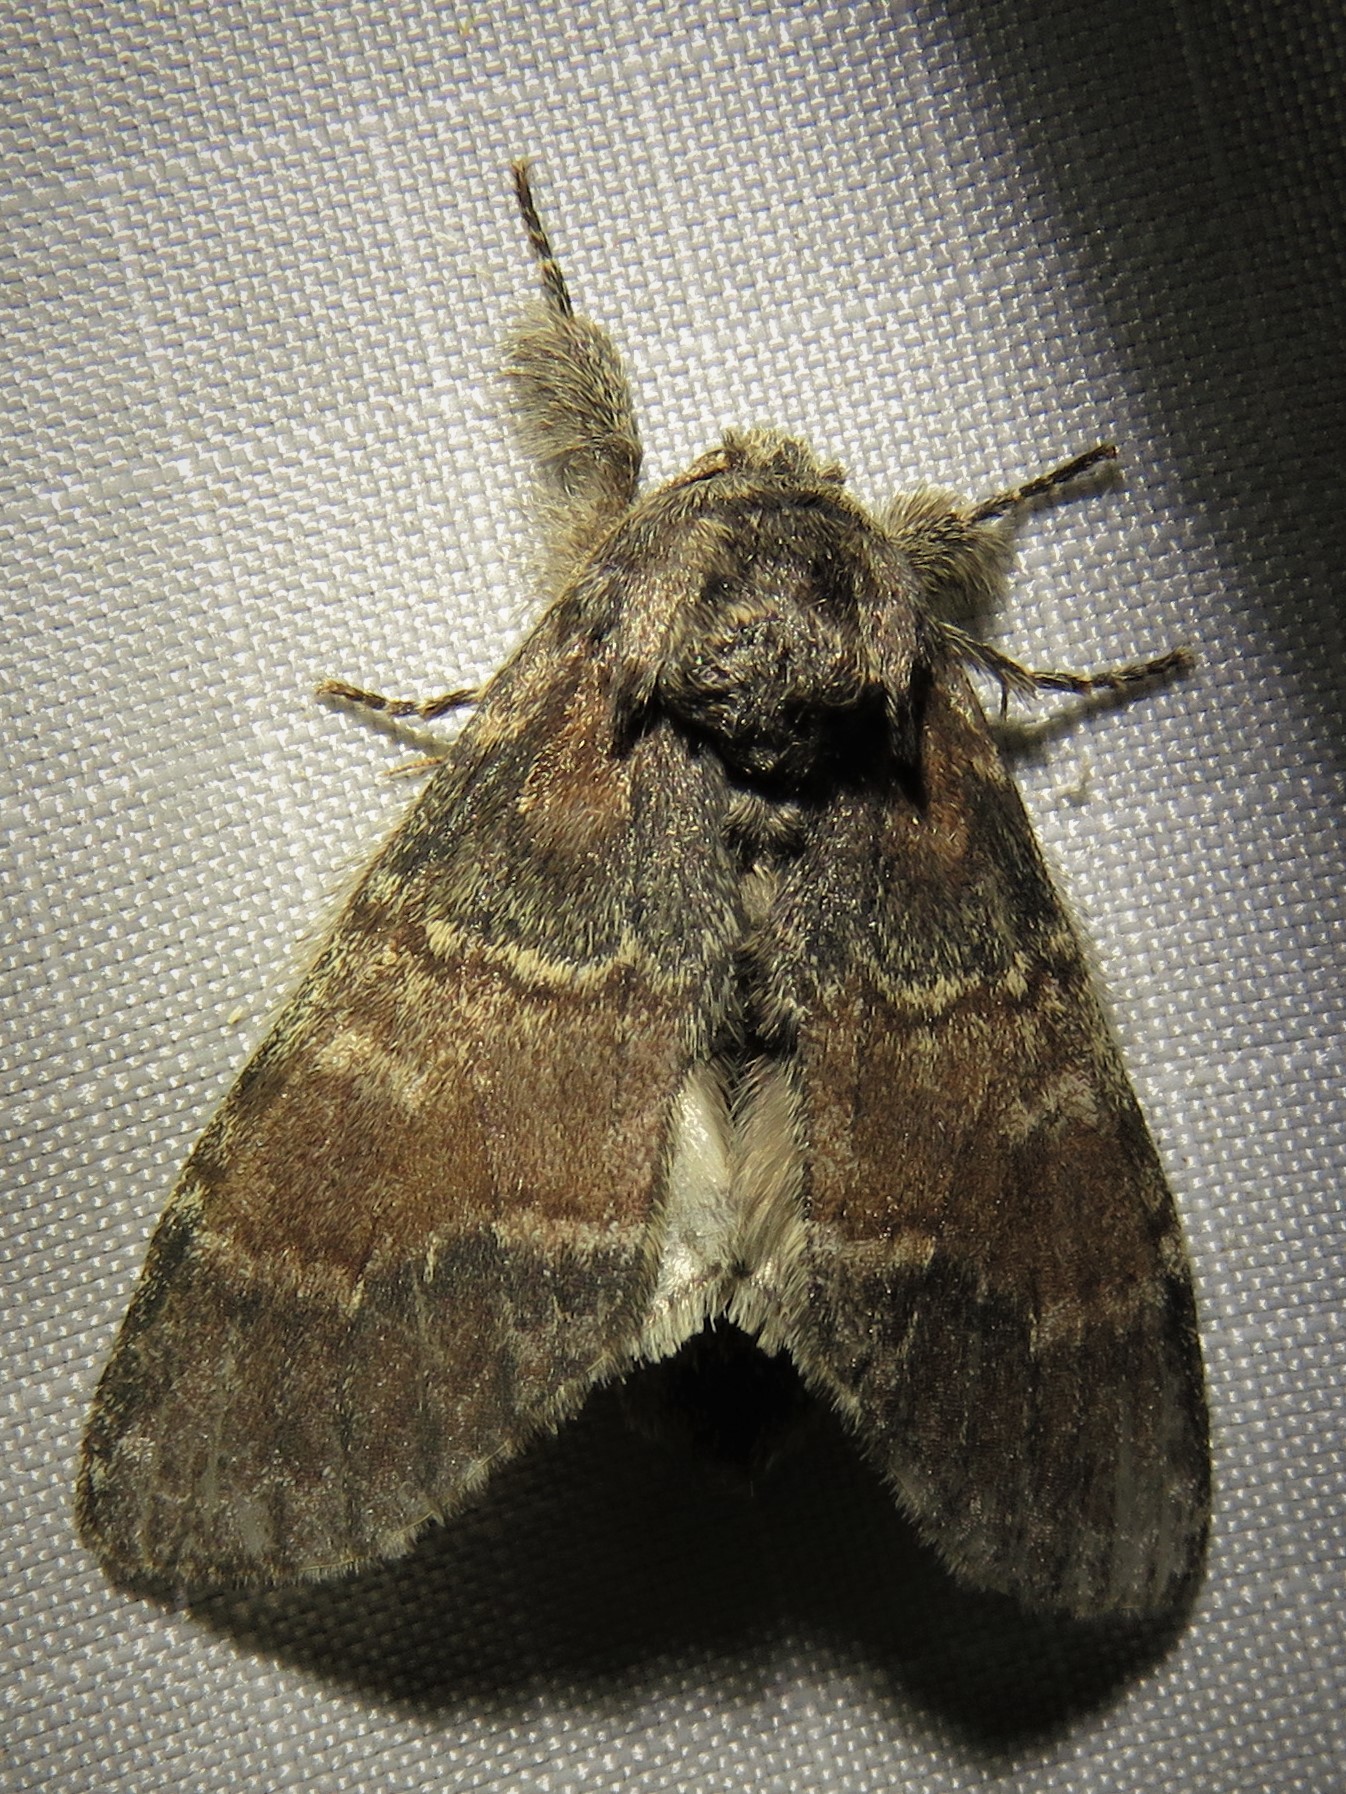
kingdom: Animalia
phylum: Arthropoda
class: Insecta
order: Lepidoptera
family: Notodontidae
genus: Peridea
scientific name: Peridea
